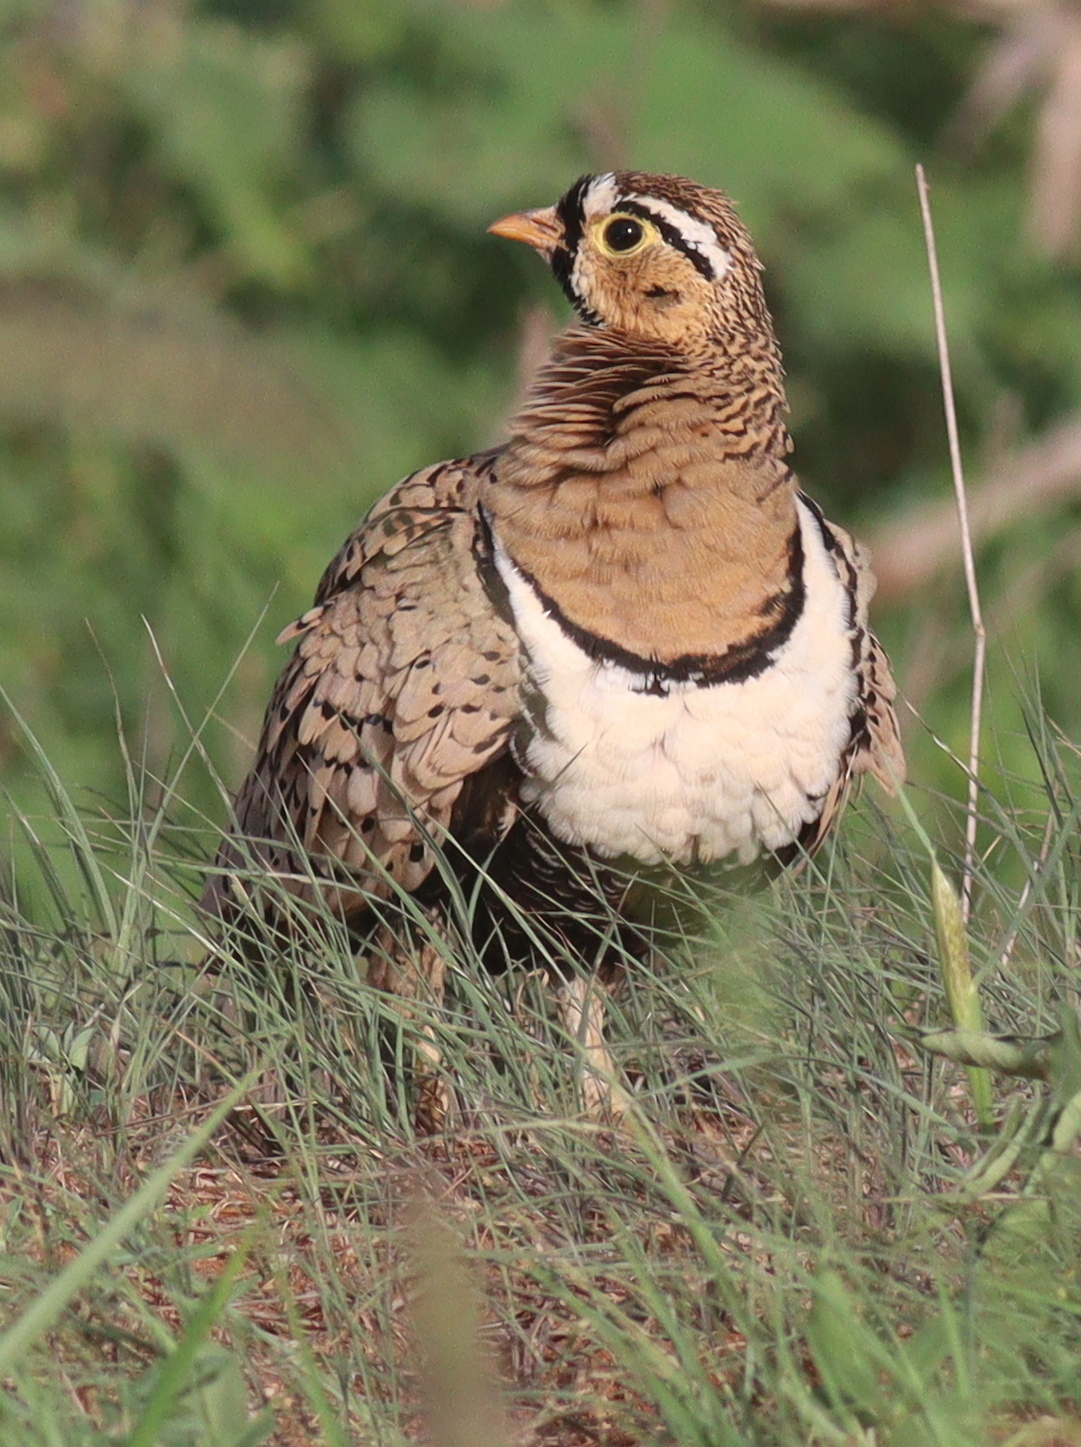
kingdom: Animalia
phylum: Chordata
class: Aves
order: Pteroclidiformes
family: Pteroclididae
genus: Pterocles
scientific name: Pterocles decoratus
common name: Black-faced sandgrouse
